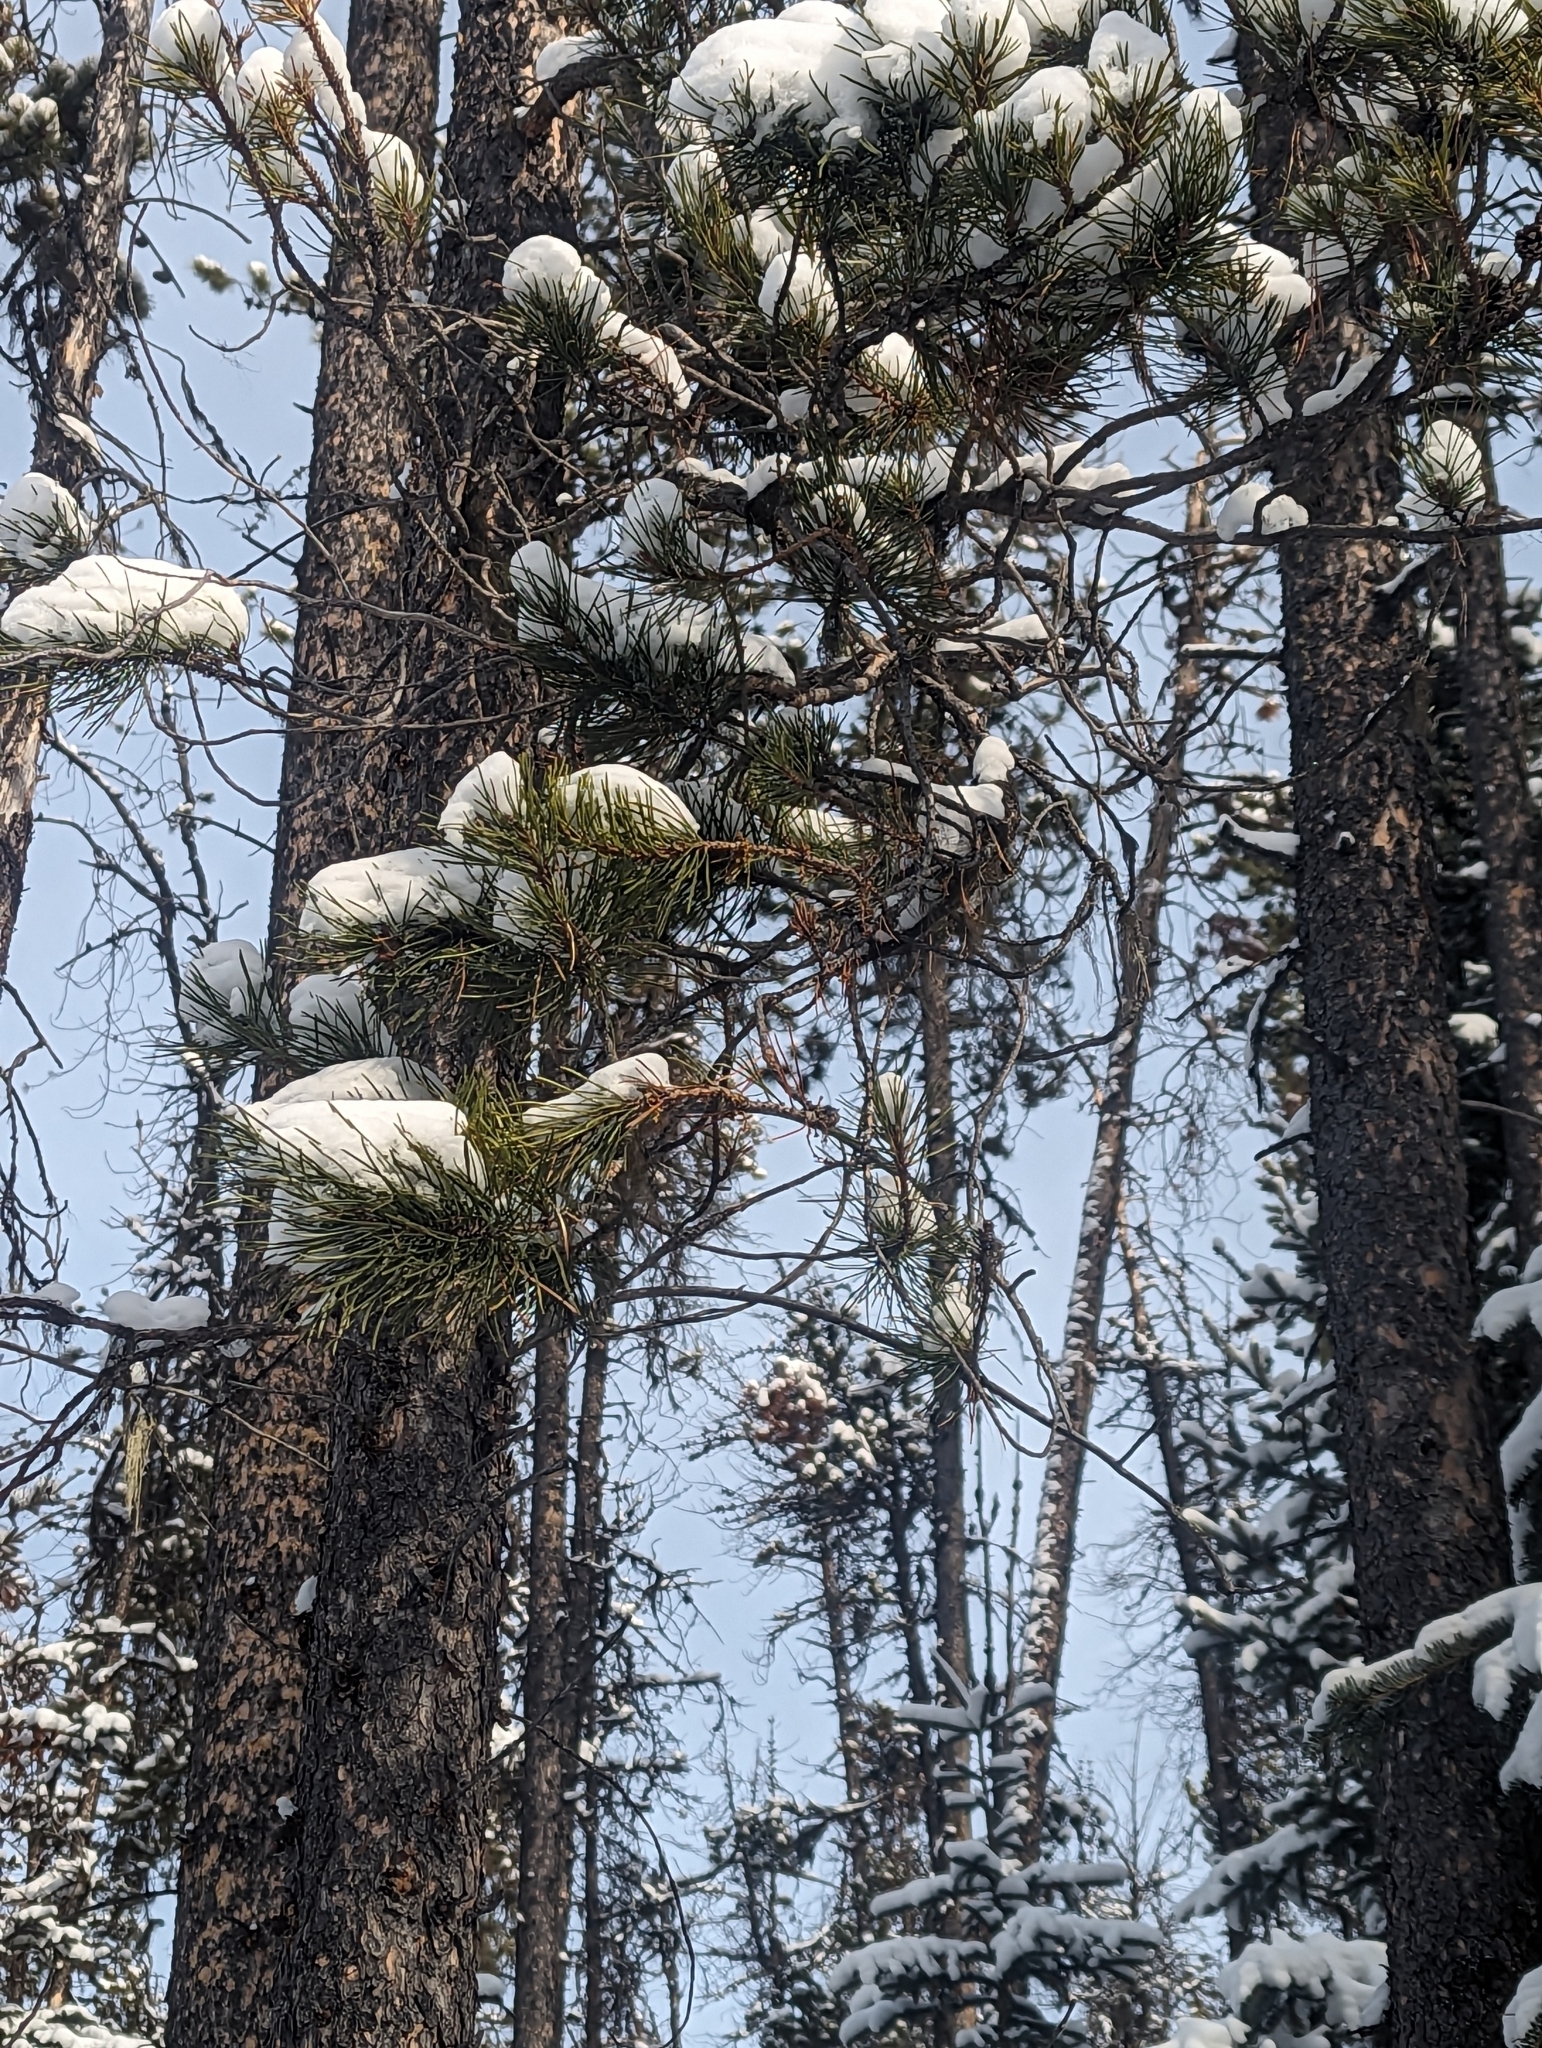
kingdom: Plantae
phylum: Tracheophyta
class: Pinopsida
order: Pinales
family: Pinaceae
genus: Pinus
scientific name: Pinus contorta
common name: Lodgepole pine
